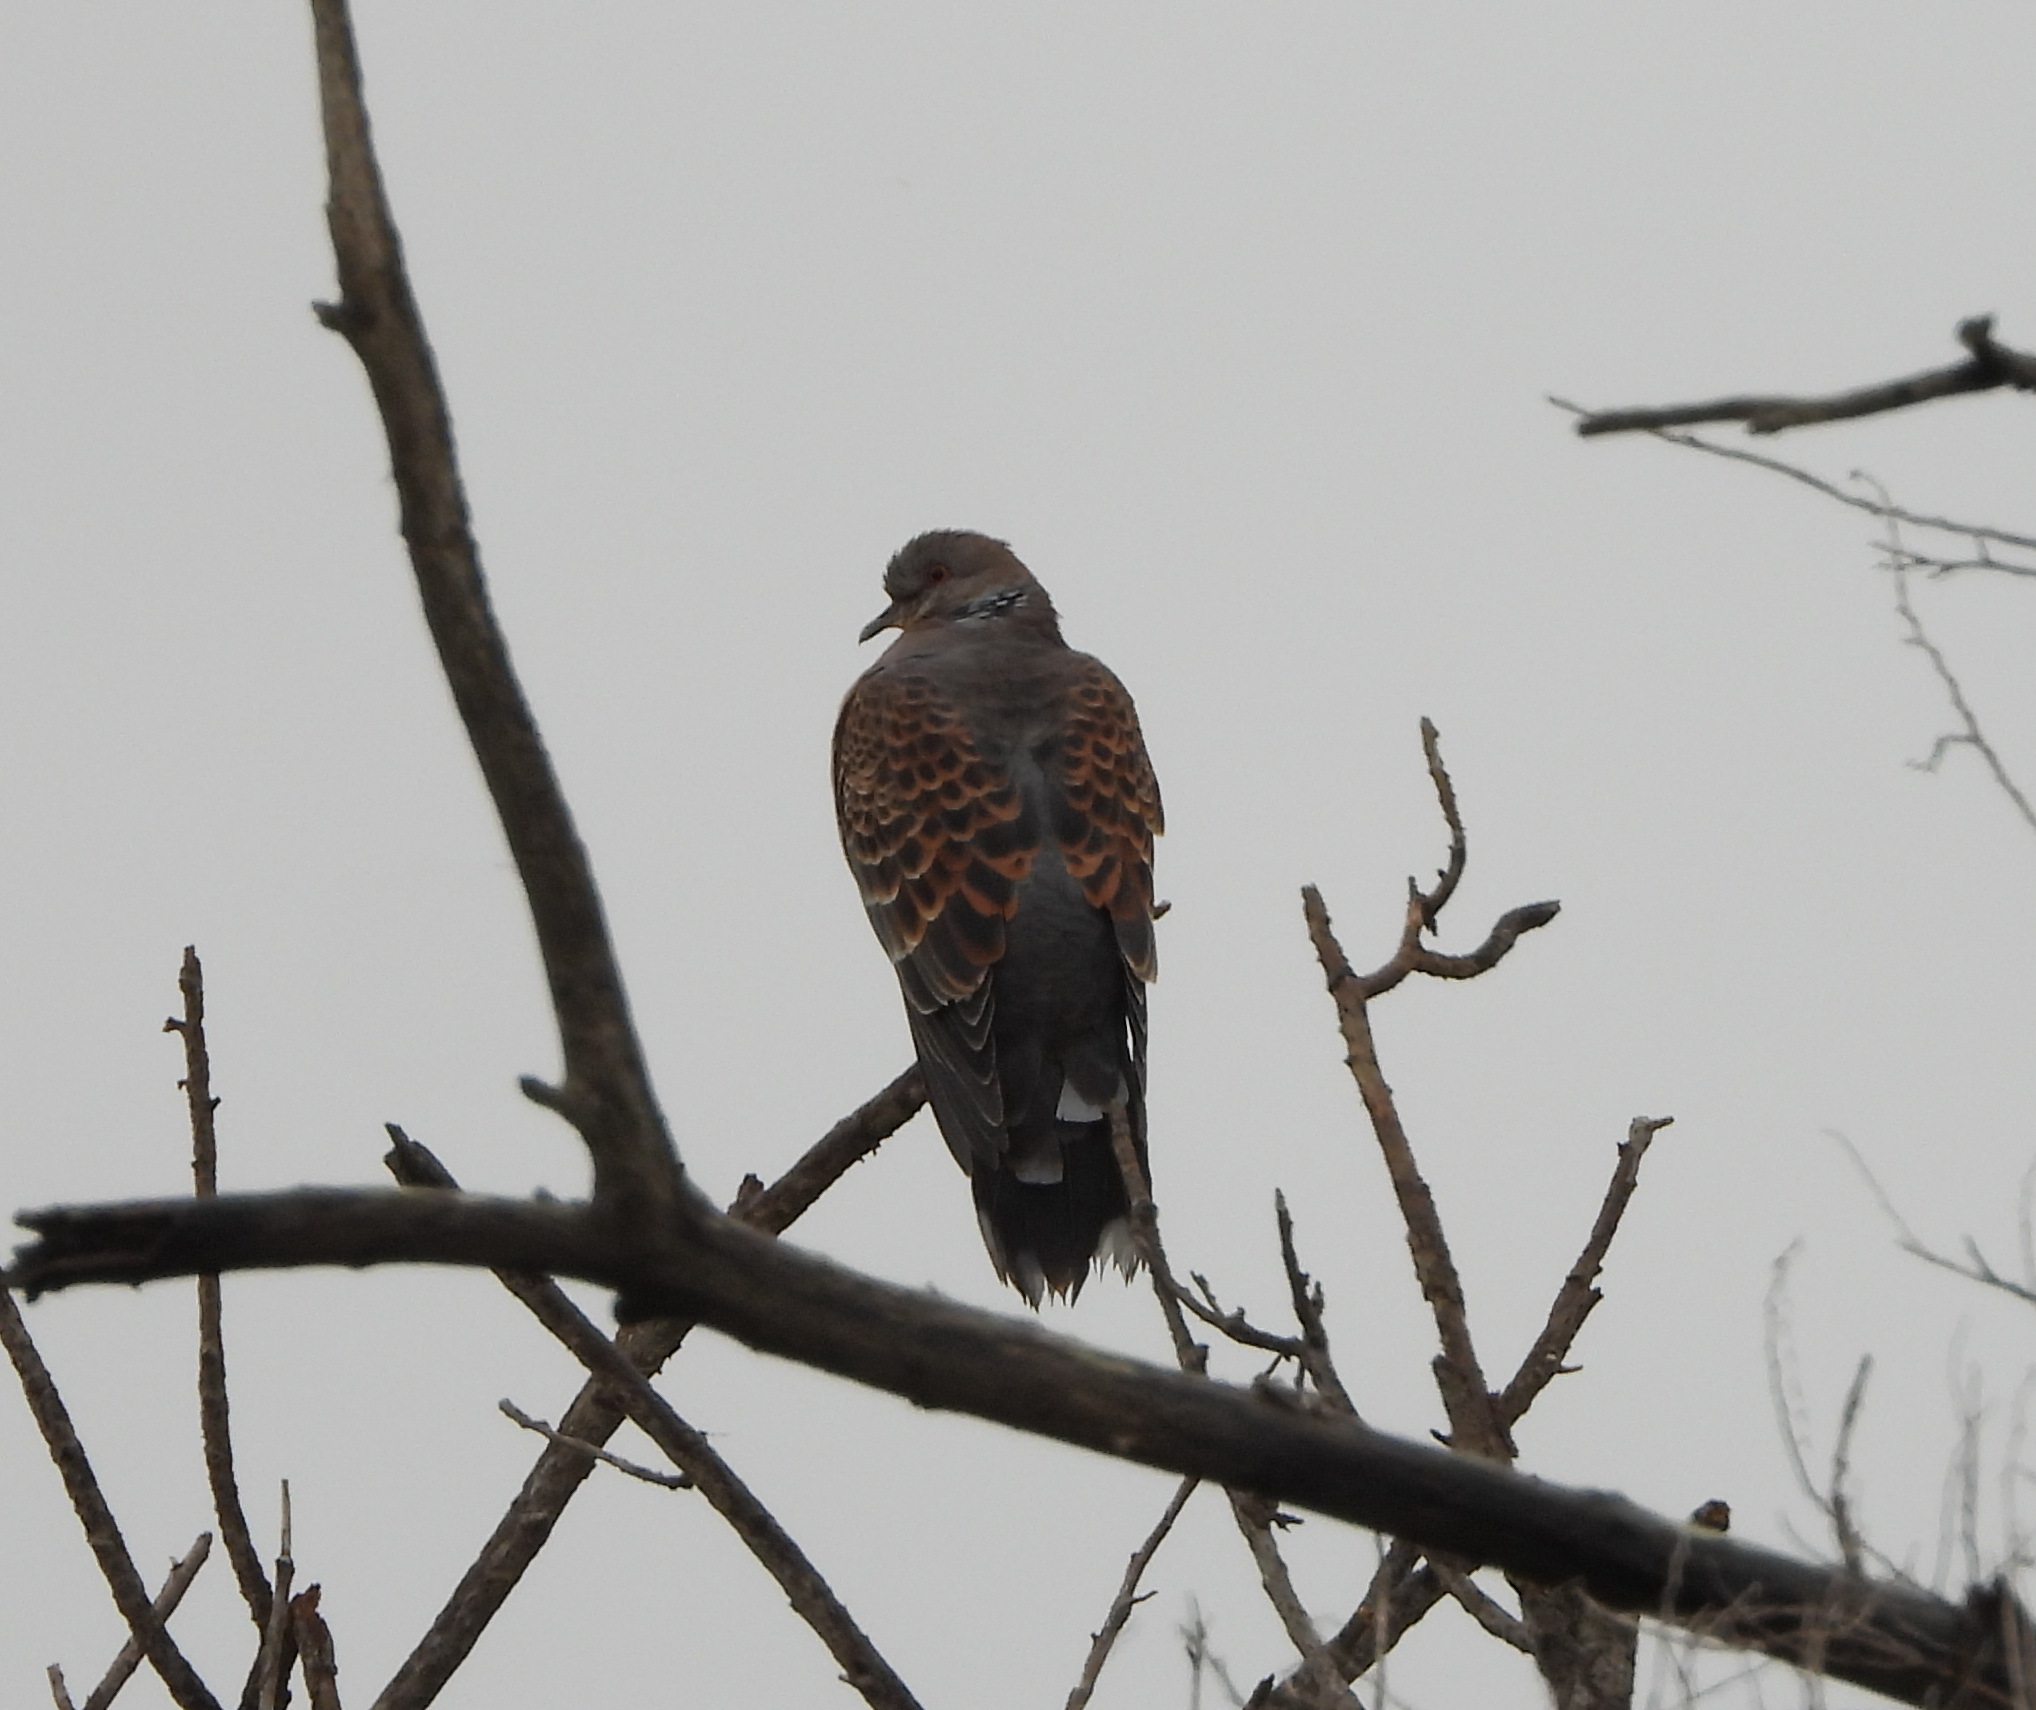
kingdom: Animalia
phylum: Chordata
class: Aves
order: Columbiformes
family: Columbidae
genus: Streptopelia
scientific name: Streptopelia orientalis
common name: Oriental turtle dove
